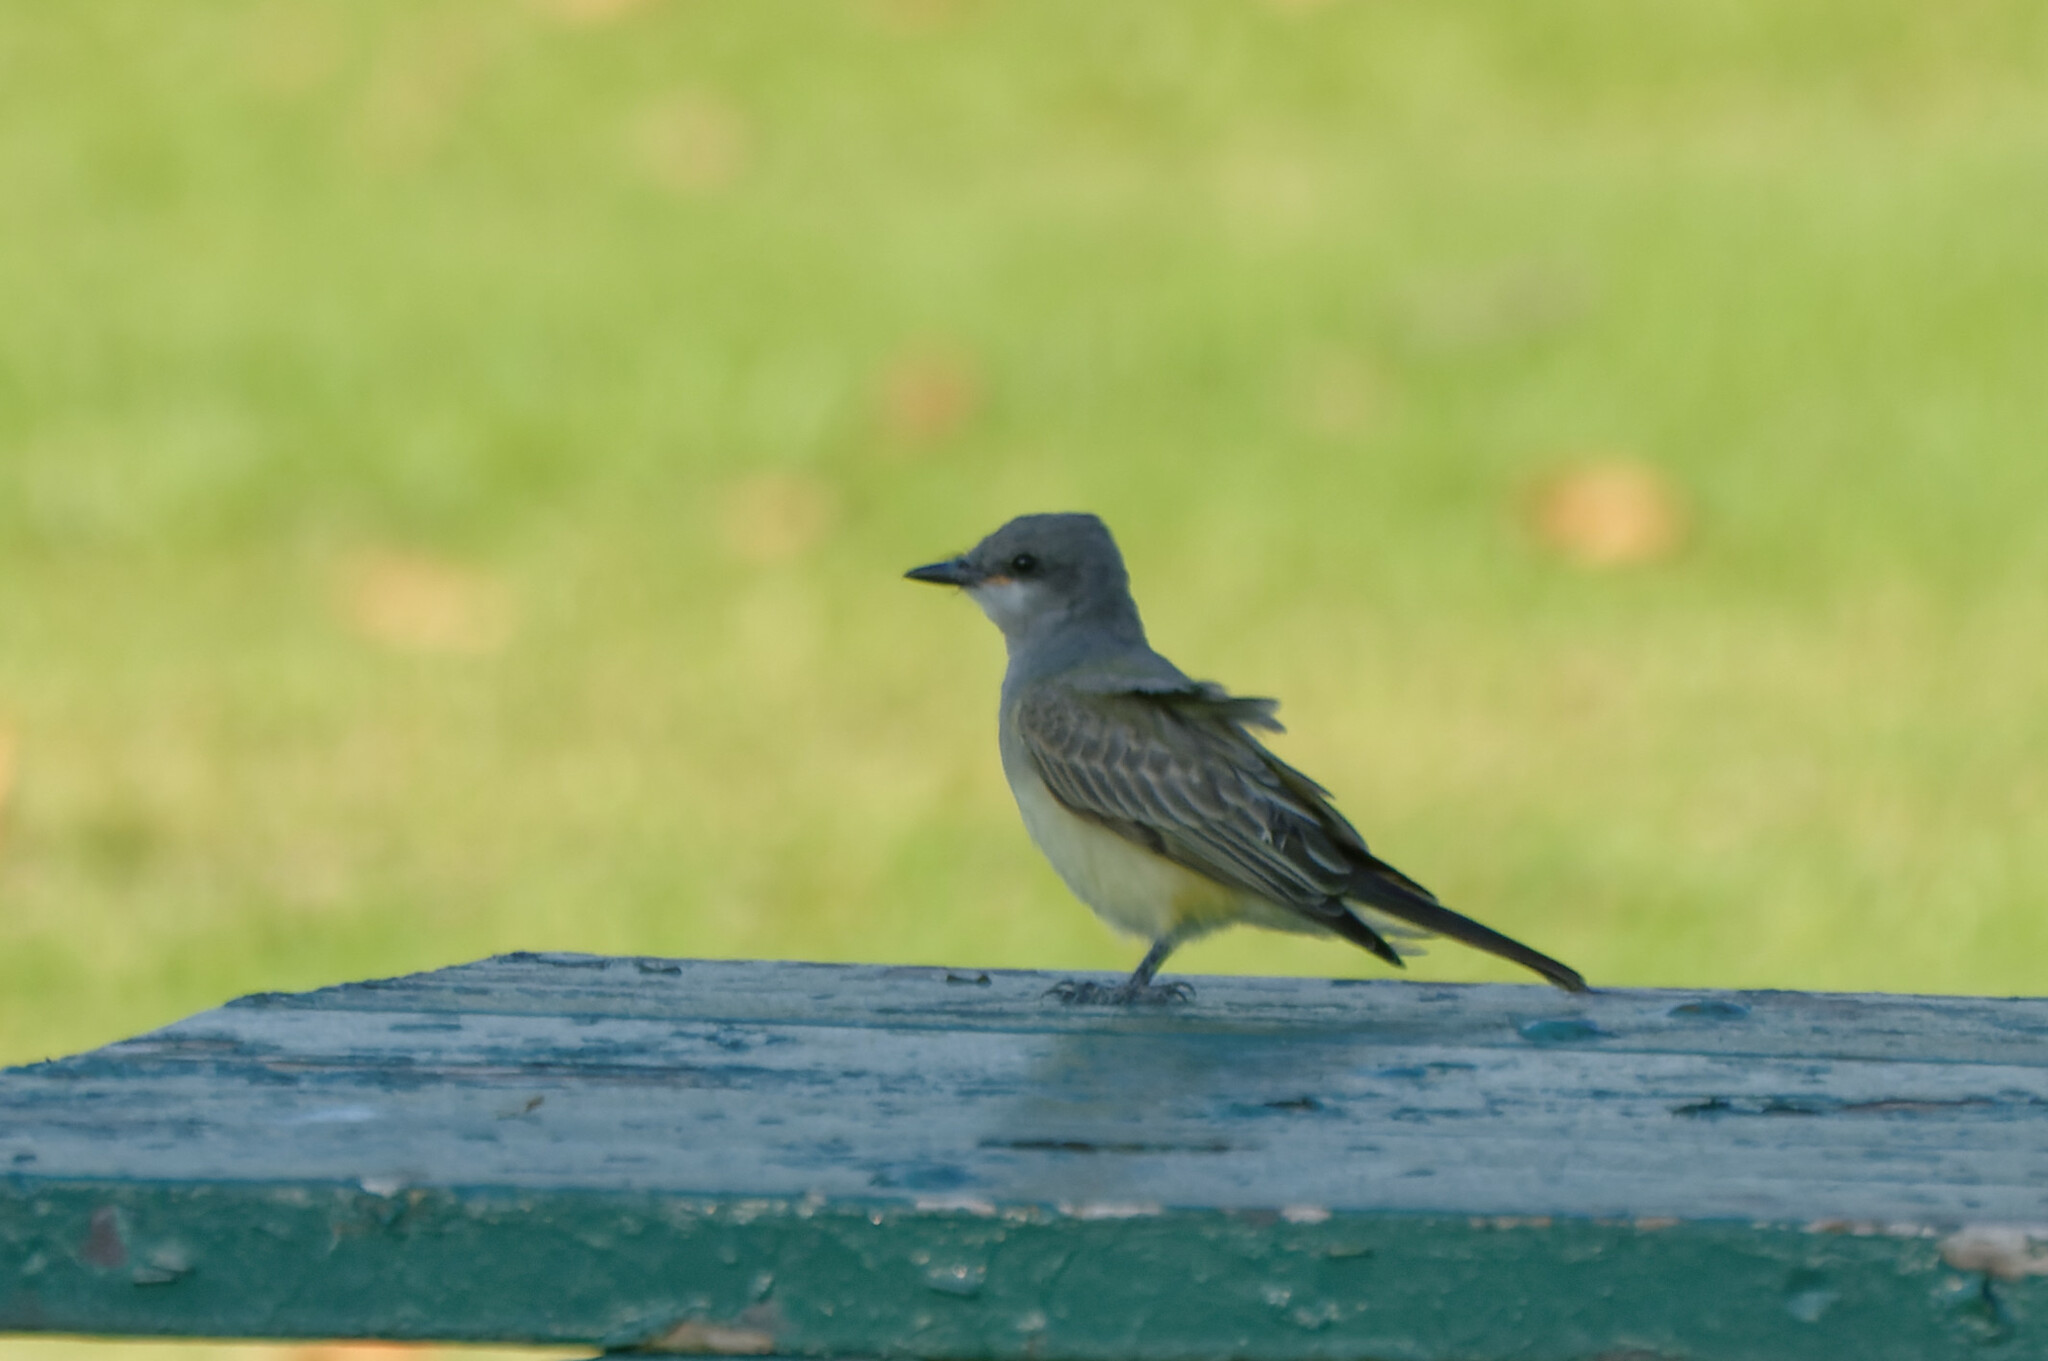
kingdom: Animalia
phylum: Chordata
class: Aves
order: Passeriformes
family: Tyrannidae
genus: Tyrannus
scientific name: Tyrannus vociferans
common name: Cassin's kingbird
